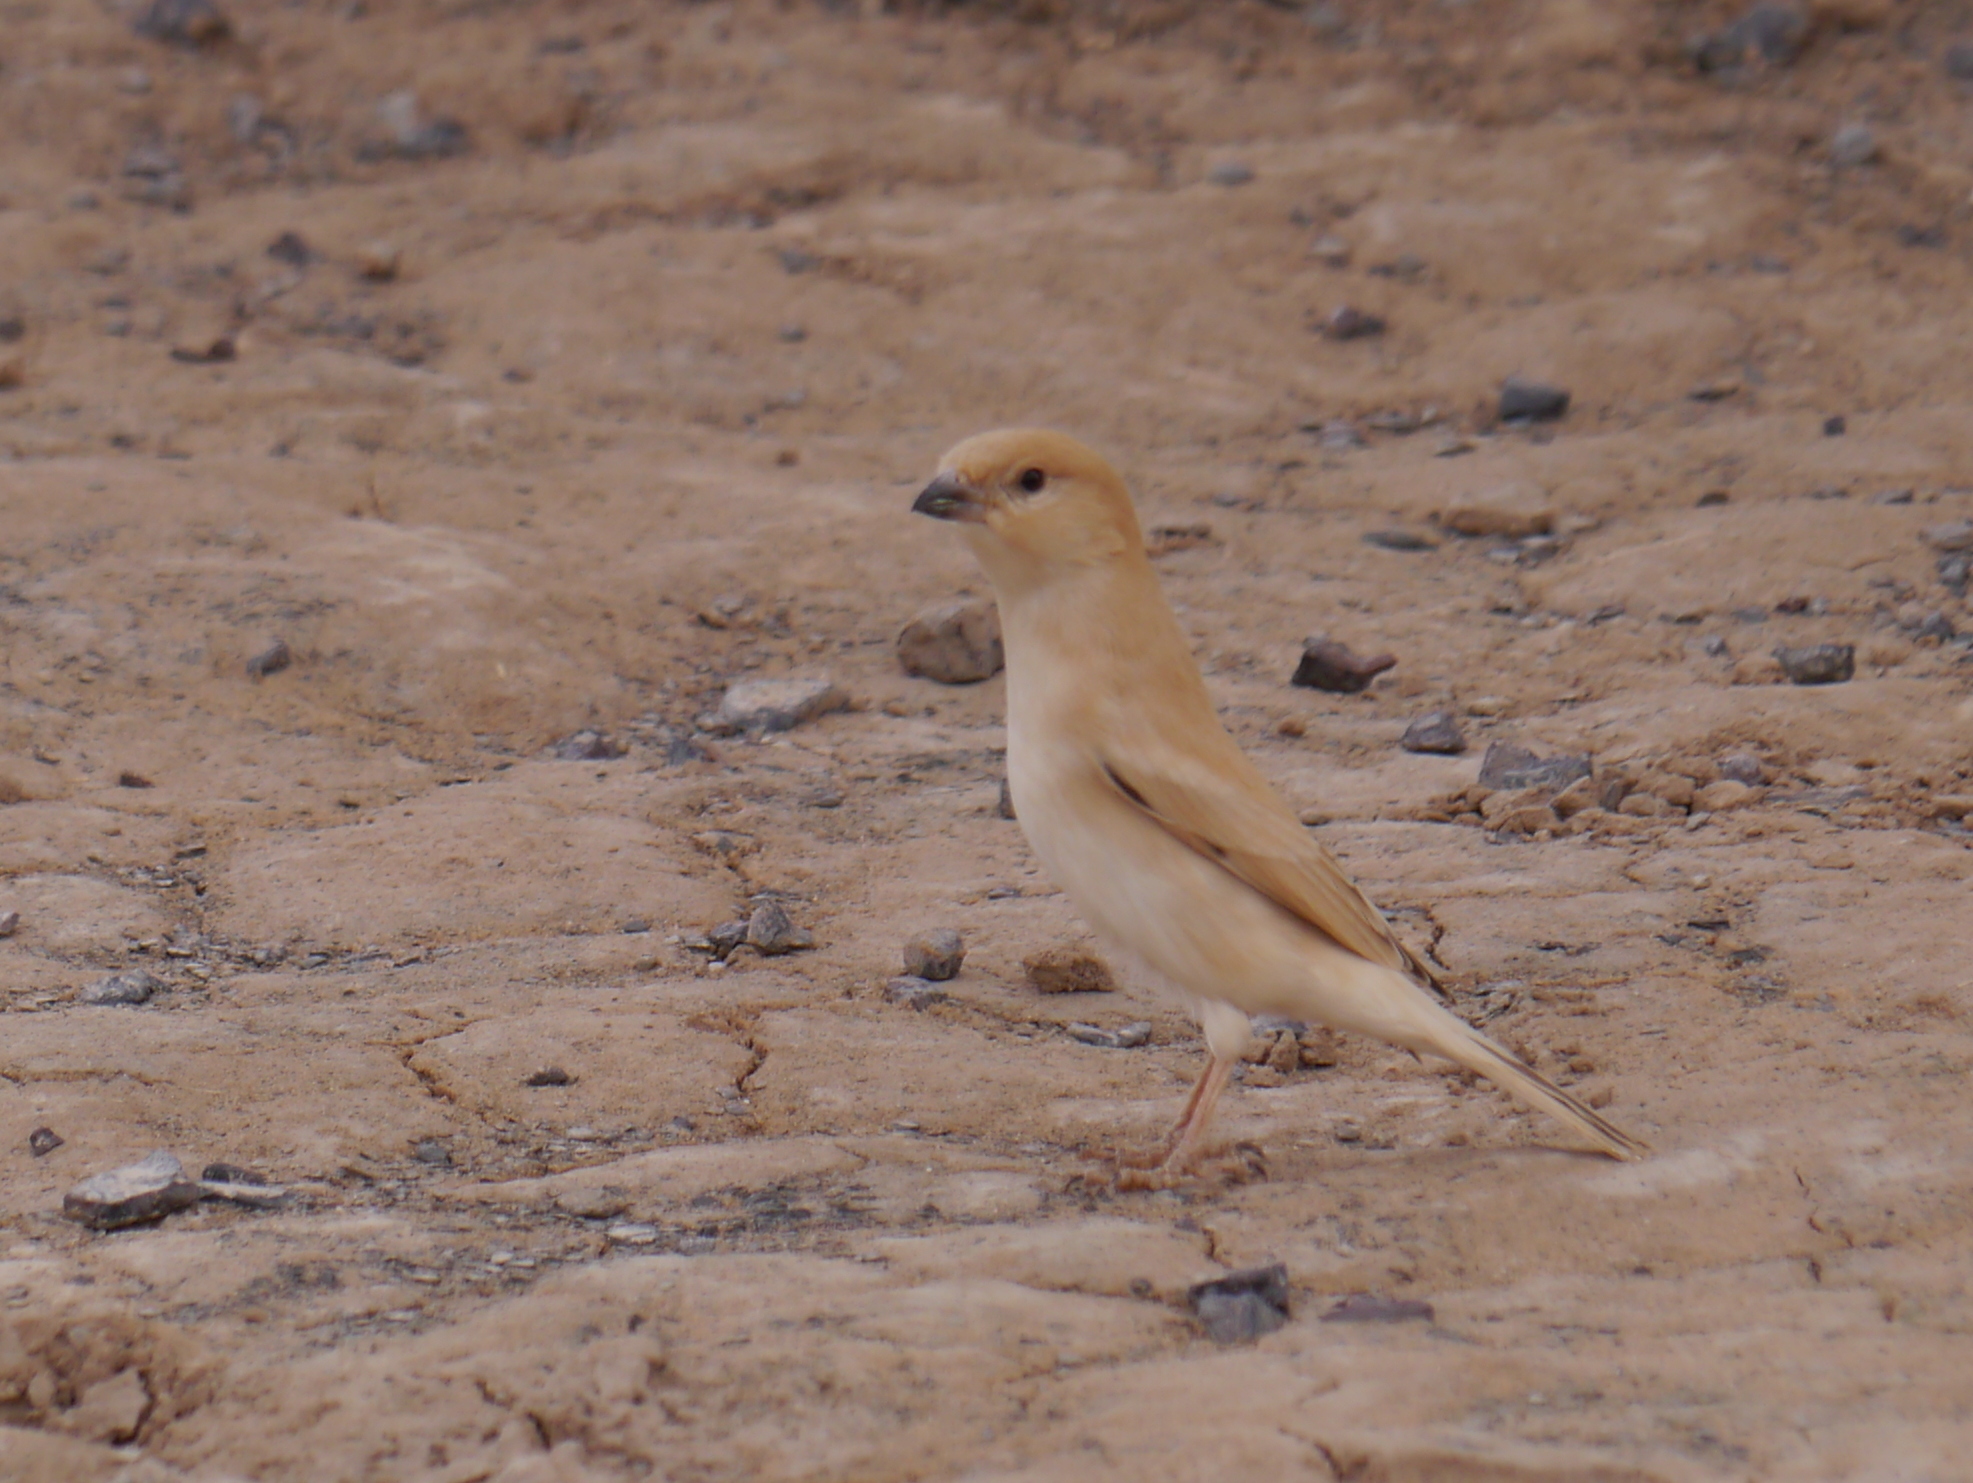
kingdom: Animalia
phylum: Chordata
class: Aves
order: Passeriformes
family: Passeridae
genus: Passer
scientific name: Passer simplex
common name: Desert sparrow
